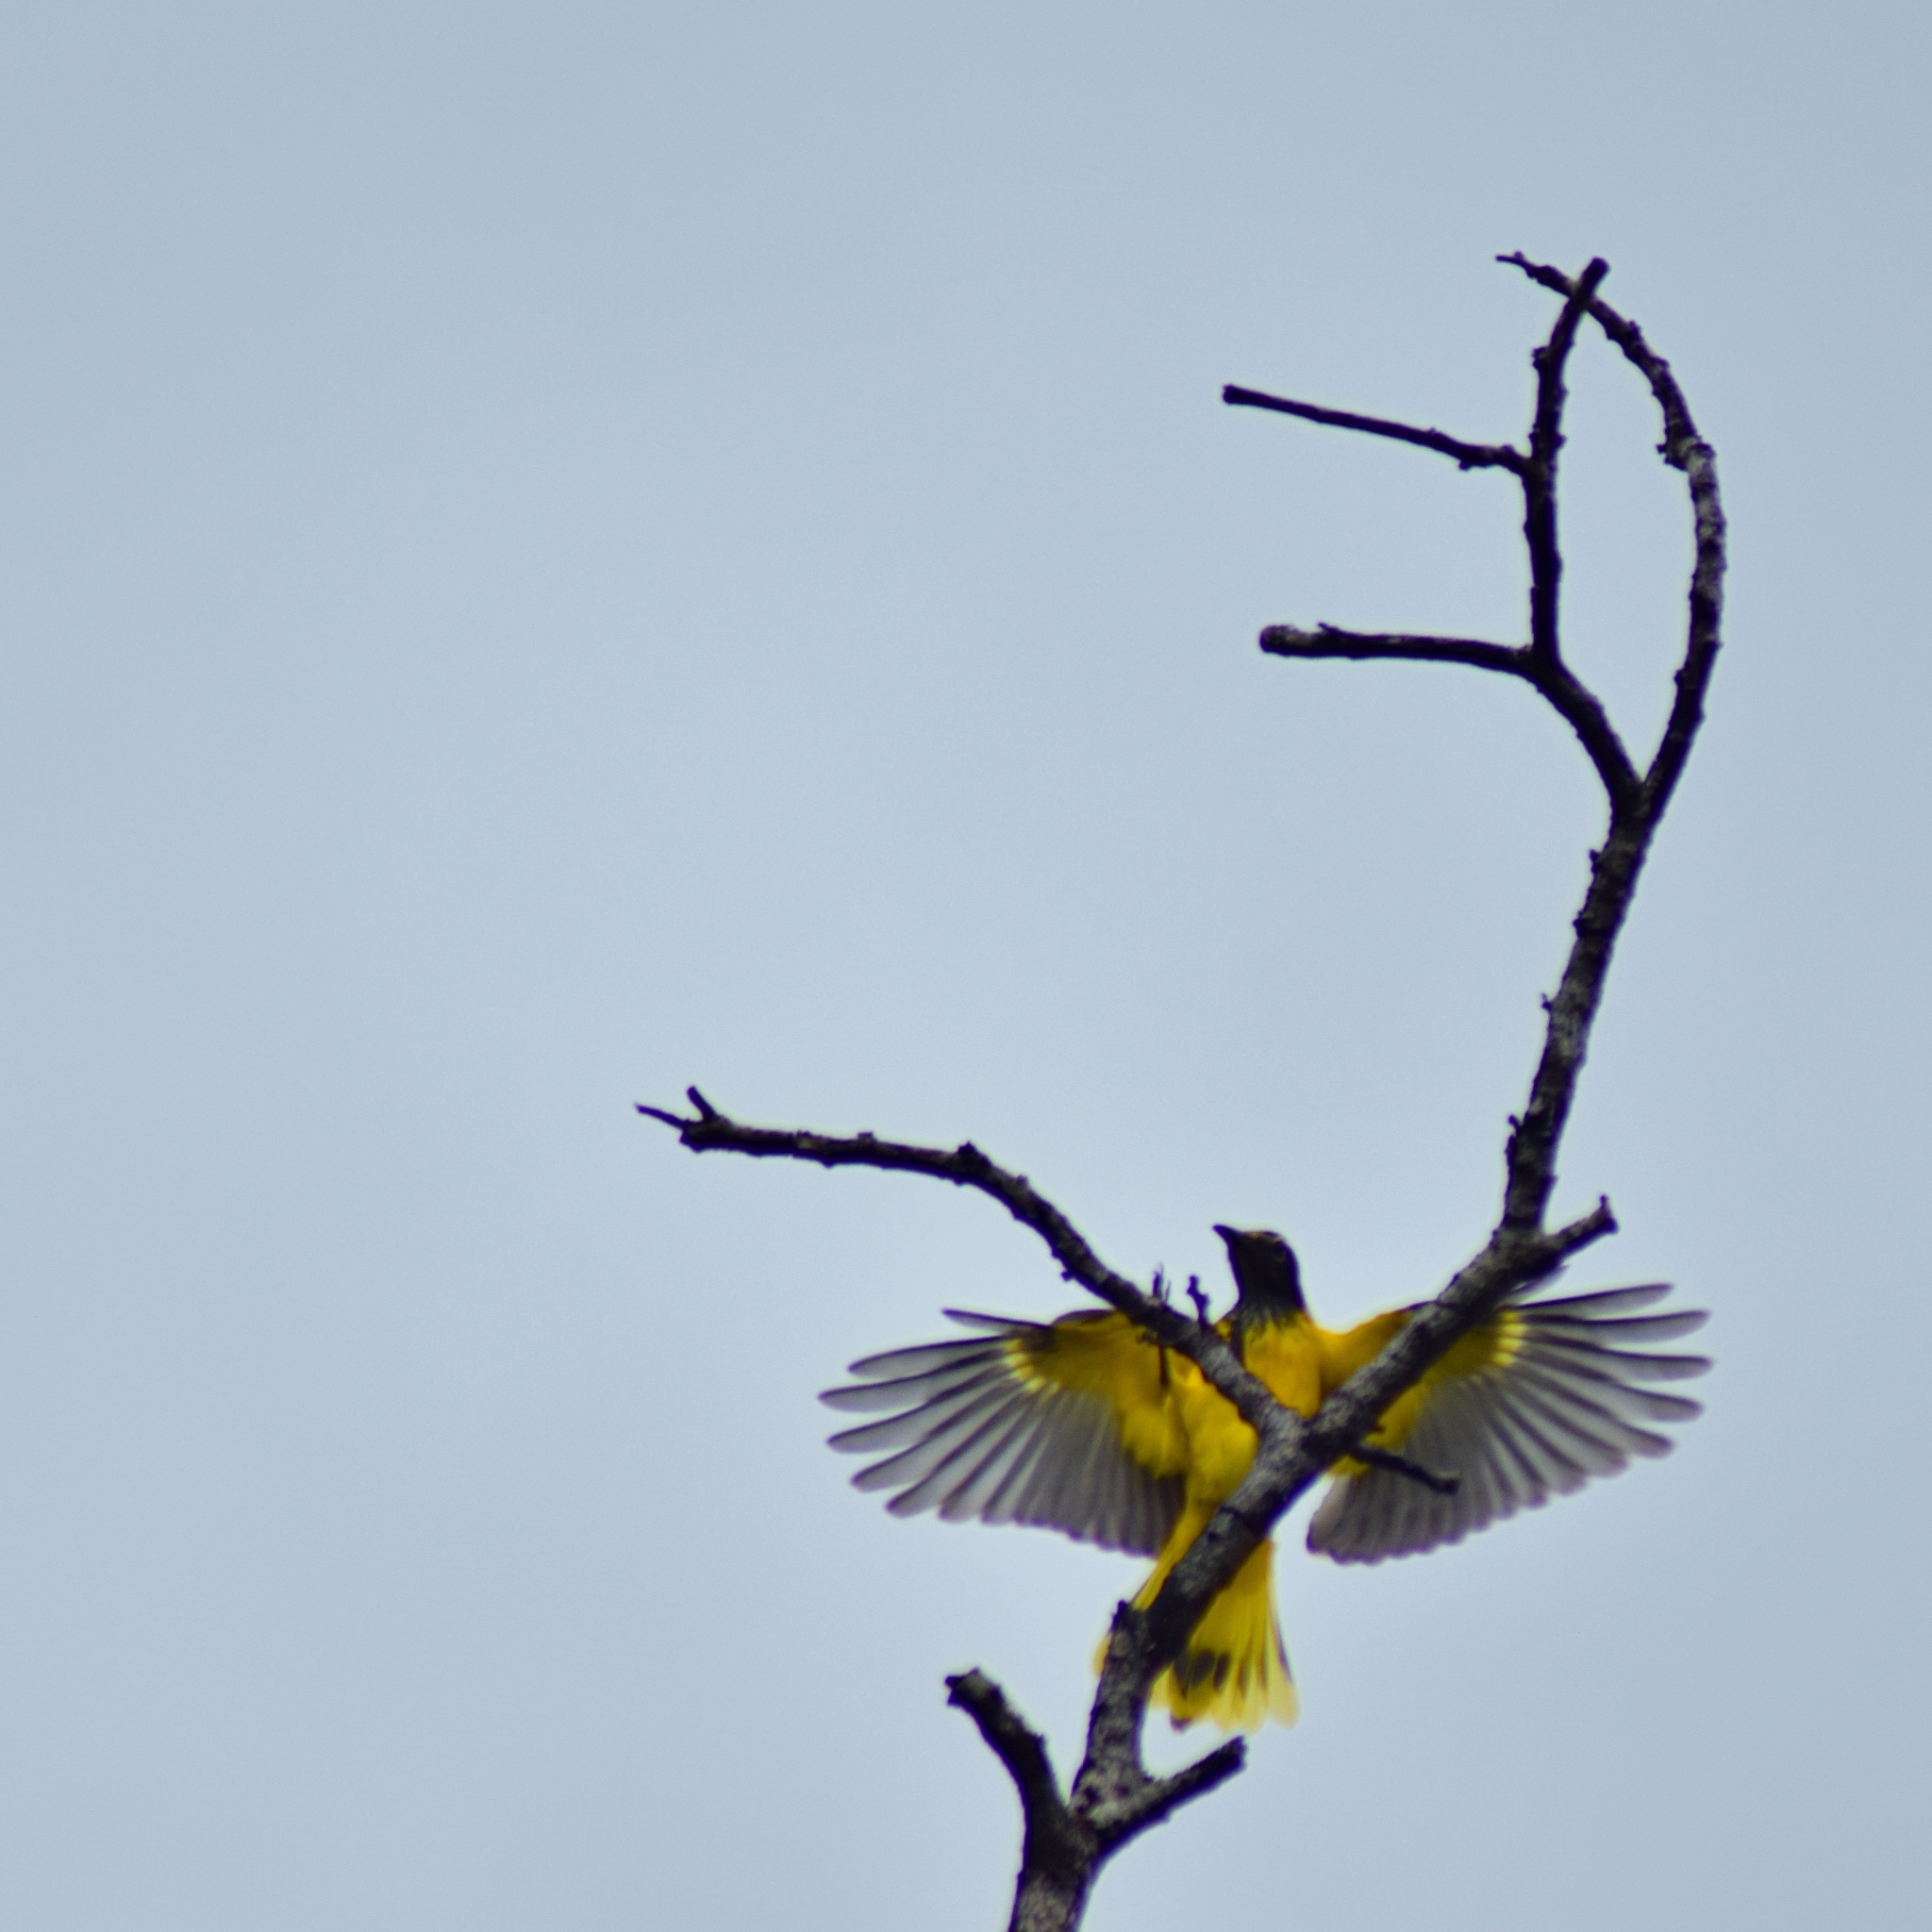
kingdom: Animalia
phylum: Chordata
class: Aves
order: Passeriformes
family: Oriolidae
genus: Oriolus
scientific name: Oriolus xanthornus
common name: Black-hooded oriole
